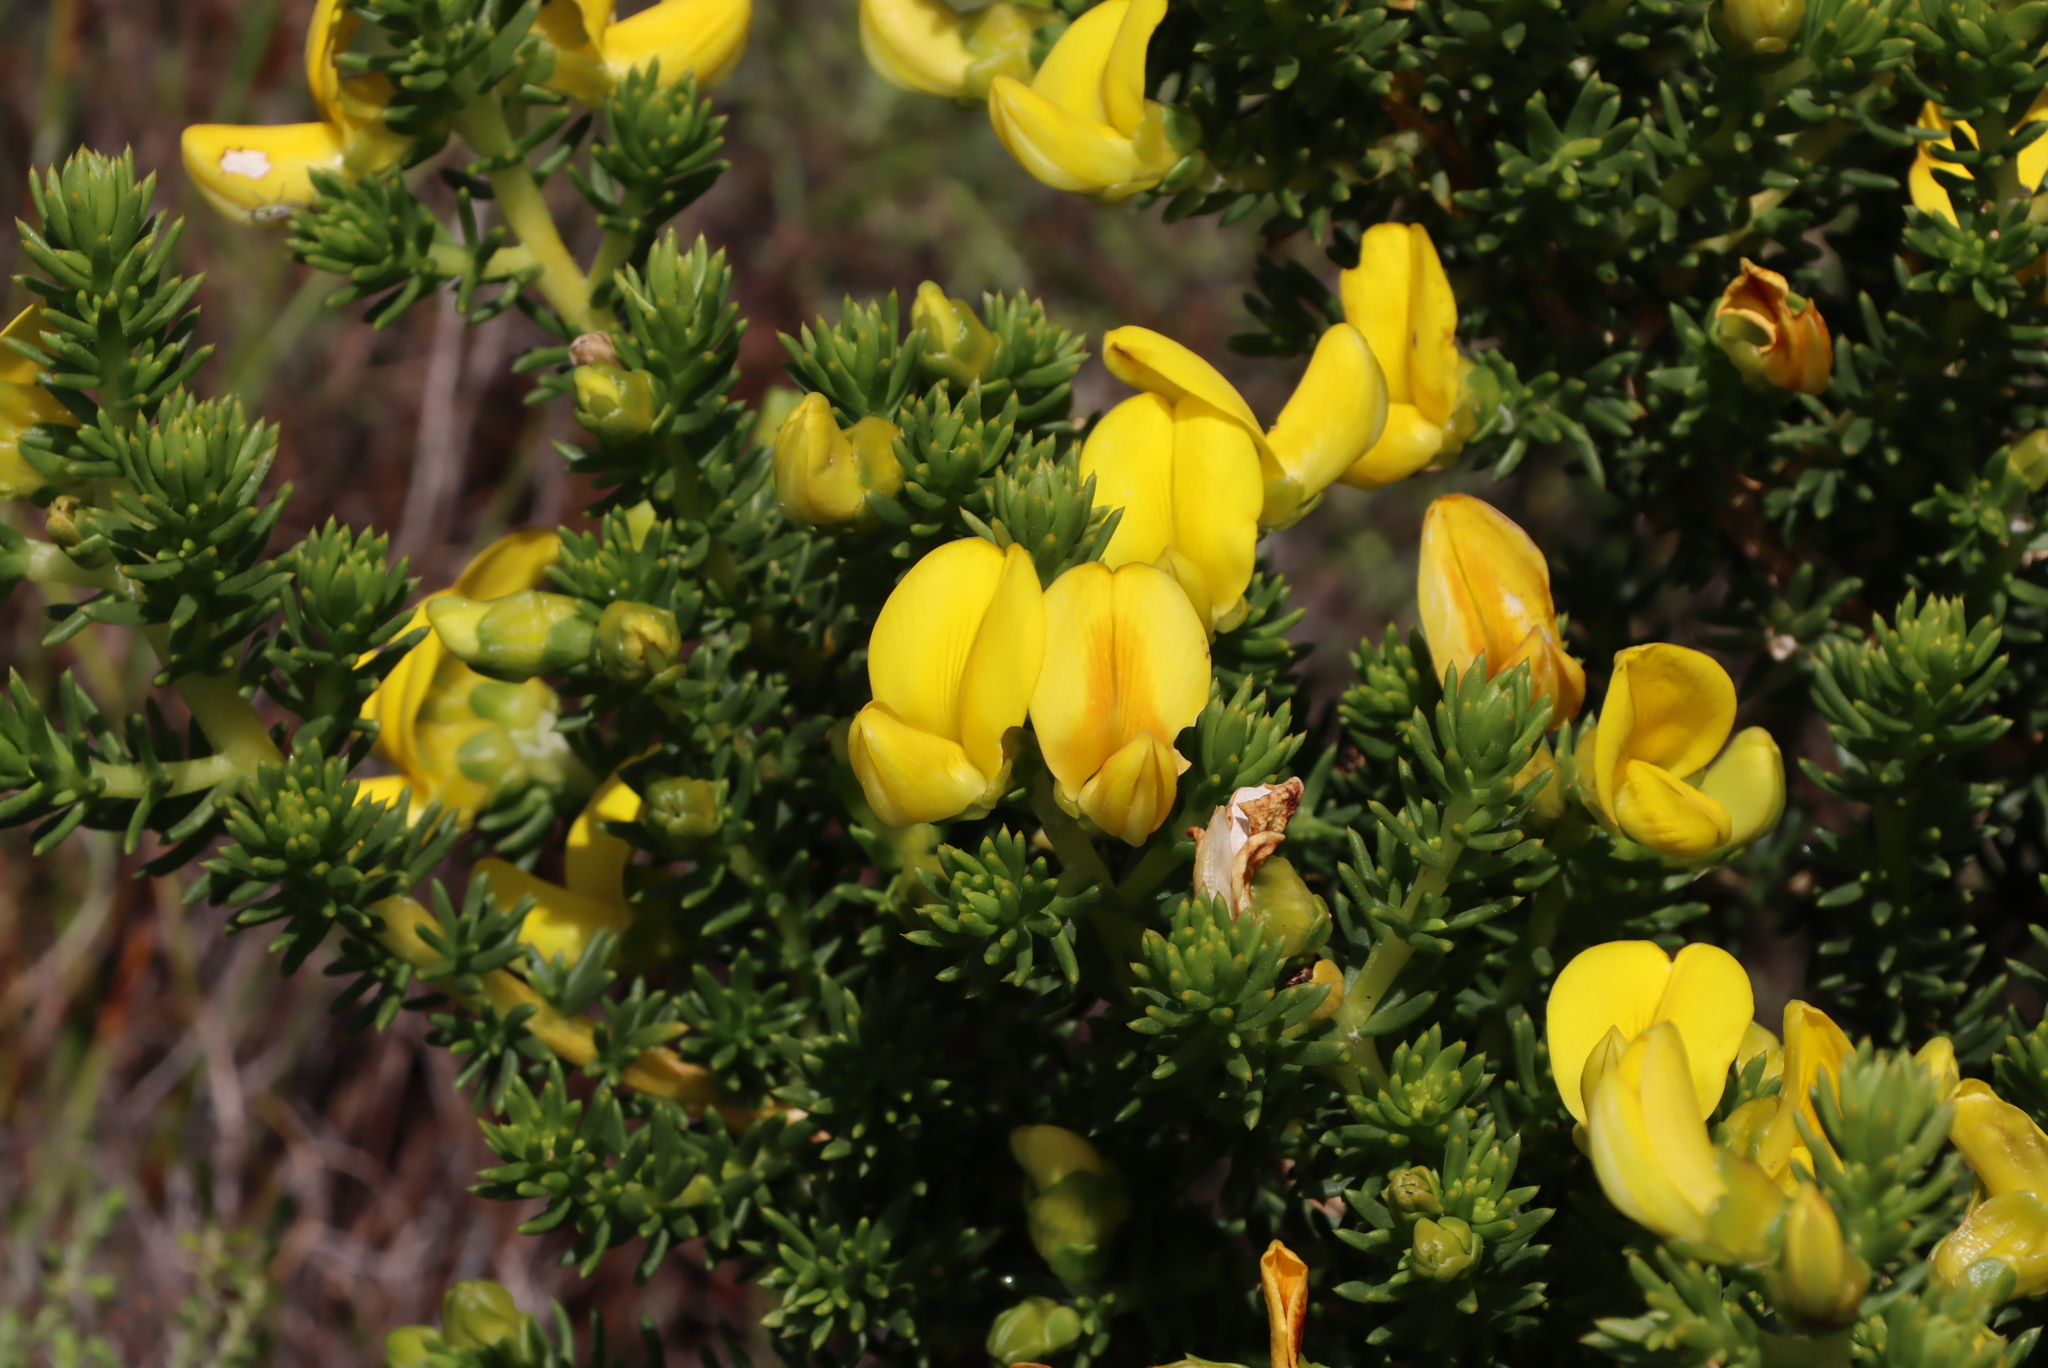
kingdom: Plantae
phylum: Tracheophyta
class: Magnoliopsida
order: Fabales
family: Fabaceae
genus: Aspalathus
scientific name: Aspalathus capensis
